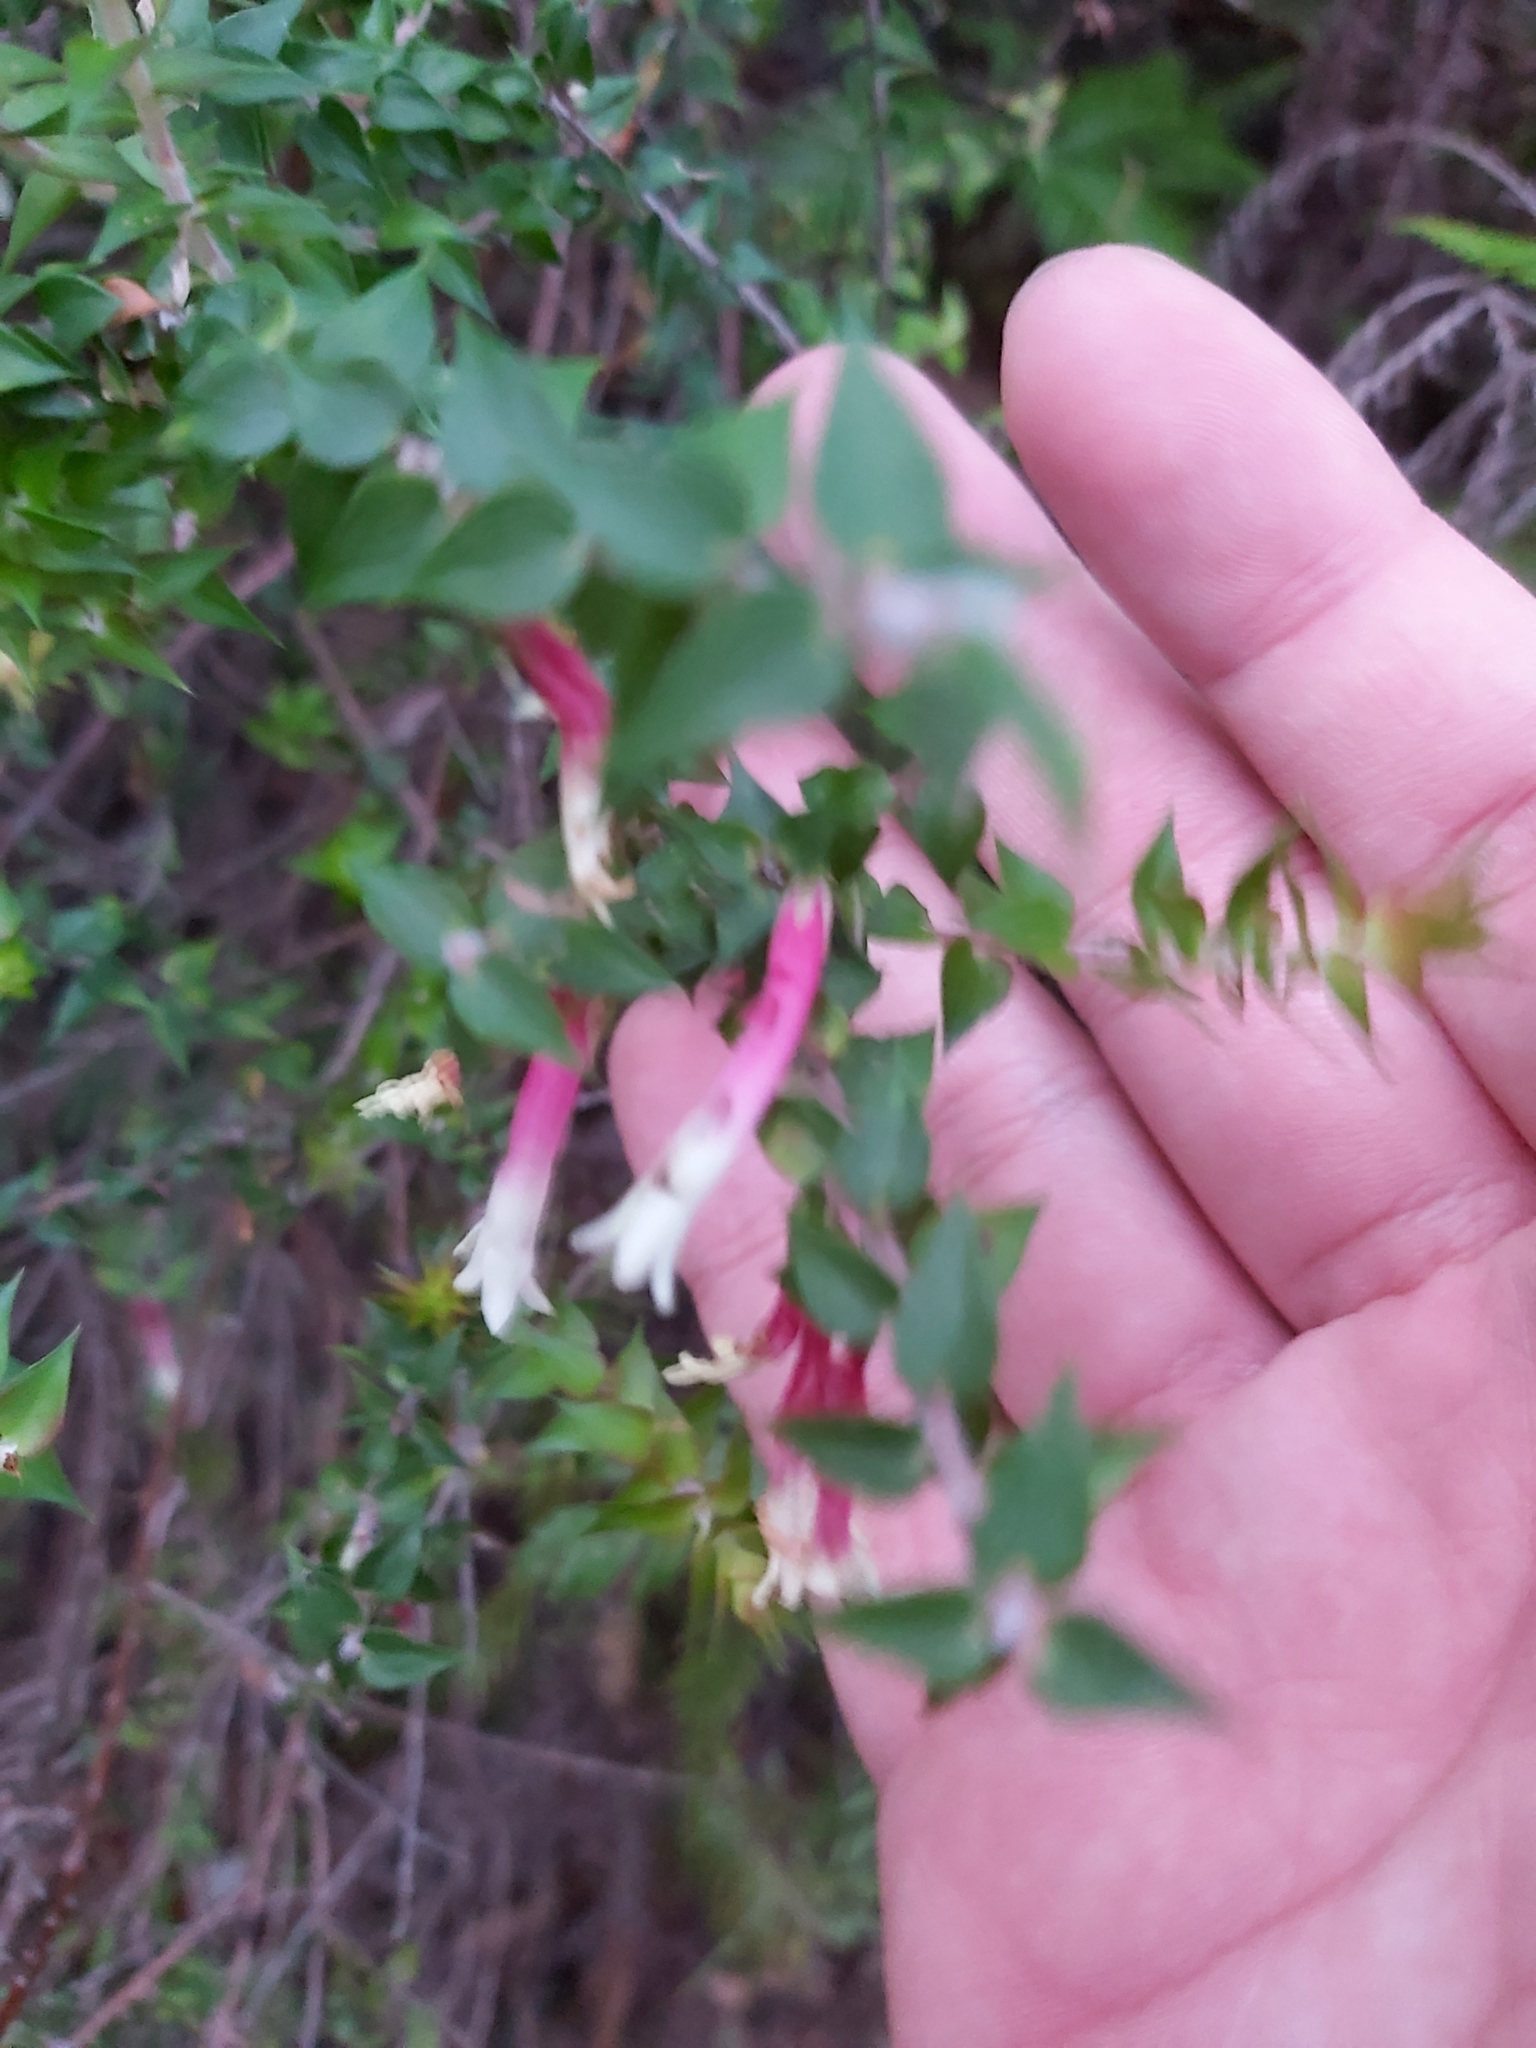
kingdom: Plantae
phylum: Tracheophyta
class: Magnoliopsida
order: Ericales
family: Ericaceae
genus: Epacris
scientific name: Epacris longiflora
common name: Fuchsia-heath
